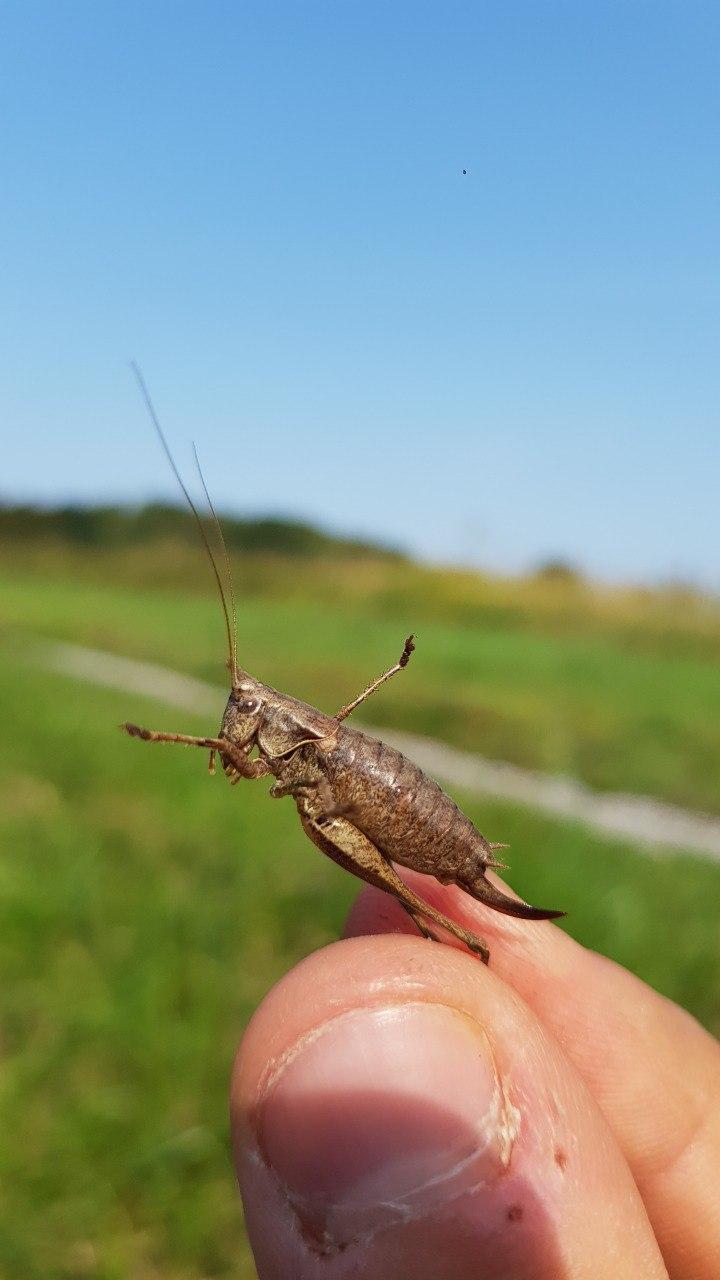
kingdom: Animalia
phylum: Arthropoda
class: Insecta
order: Orthoptera
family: Tettigoniidae
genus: Pholidoptera
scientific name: Pholidoptera griseoaptera
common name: Dark bush-cricket
